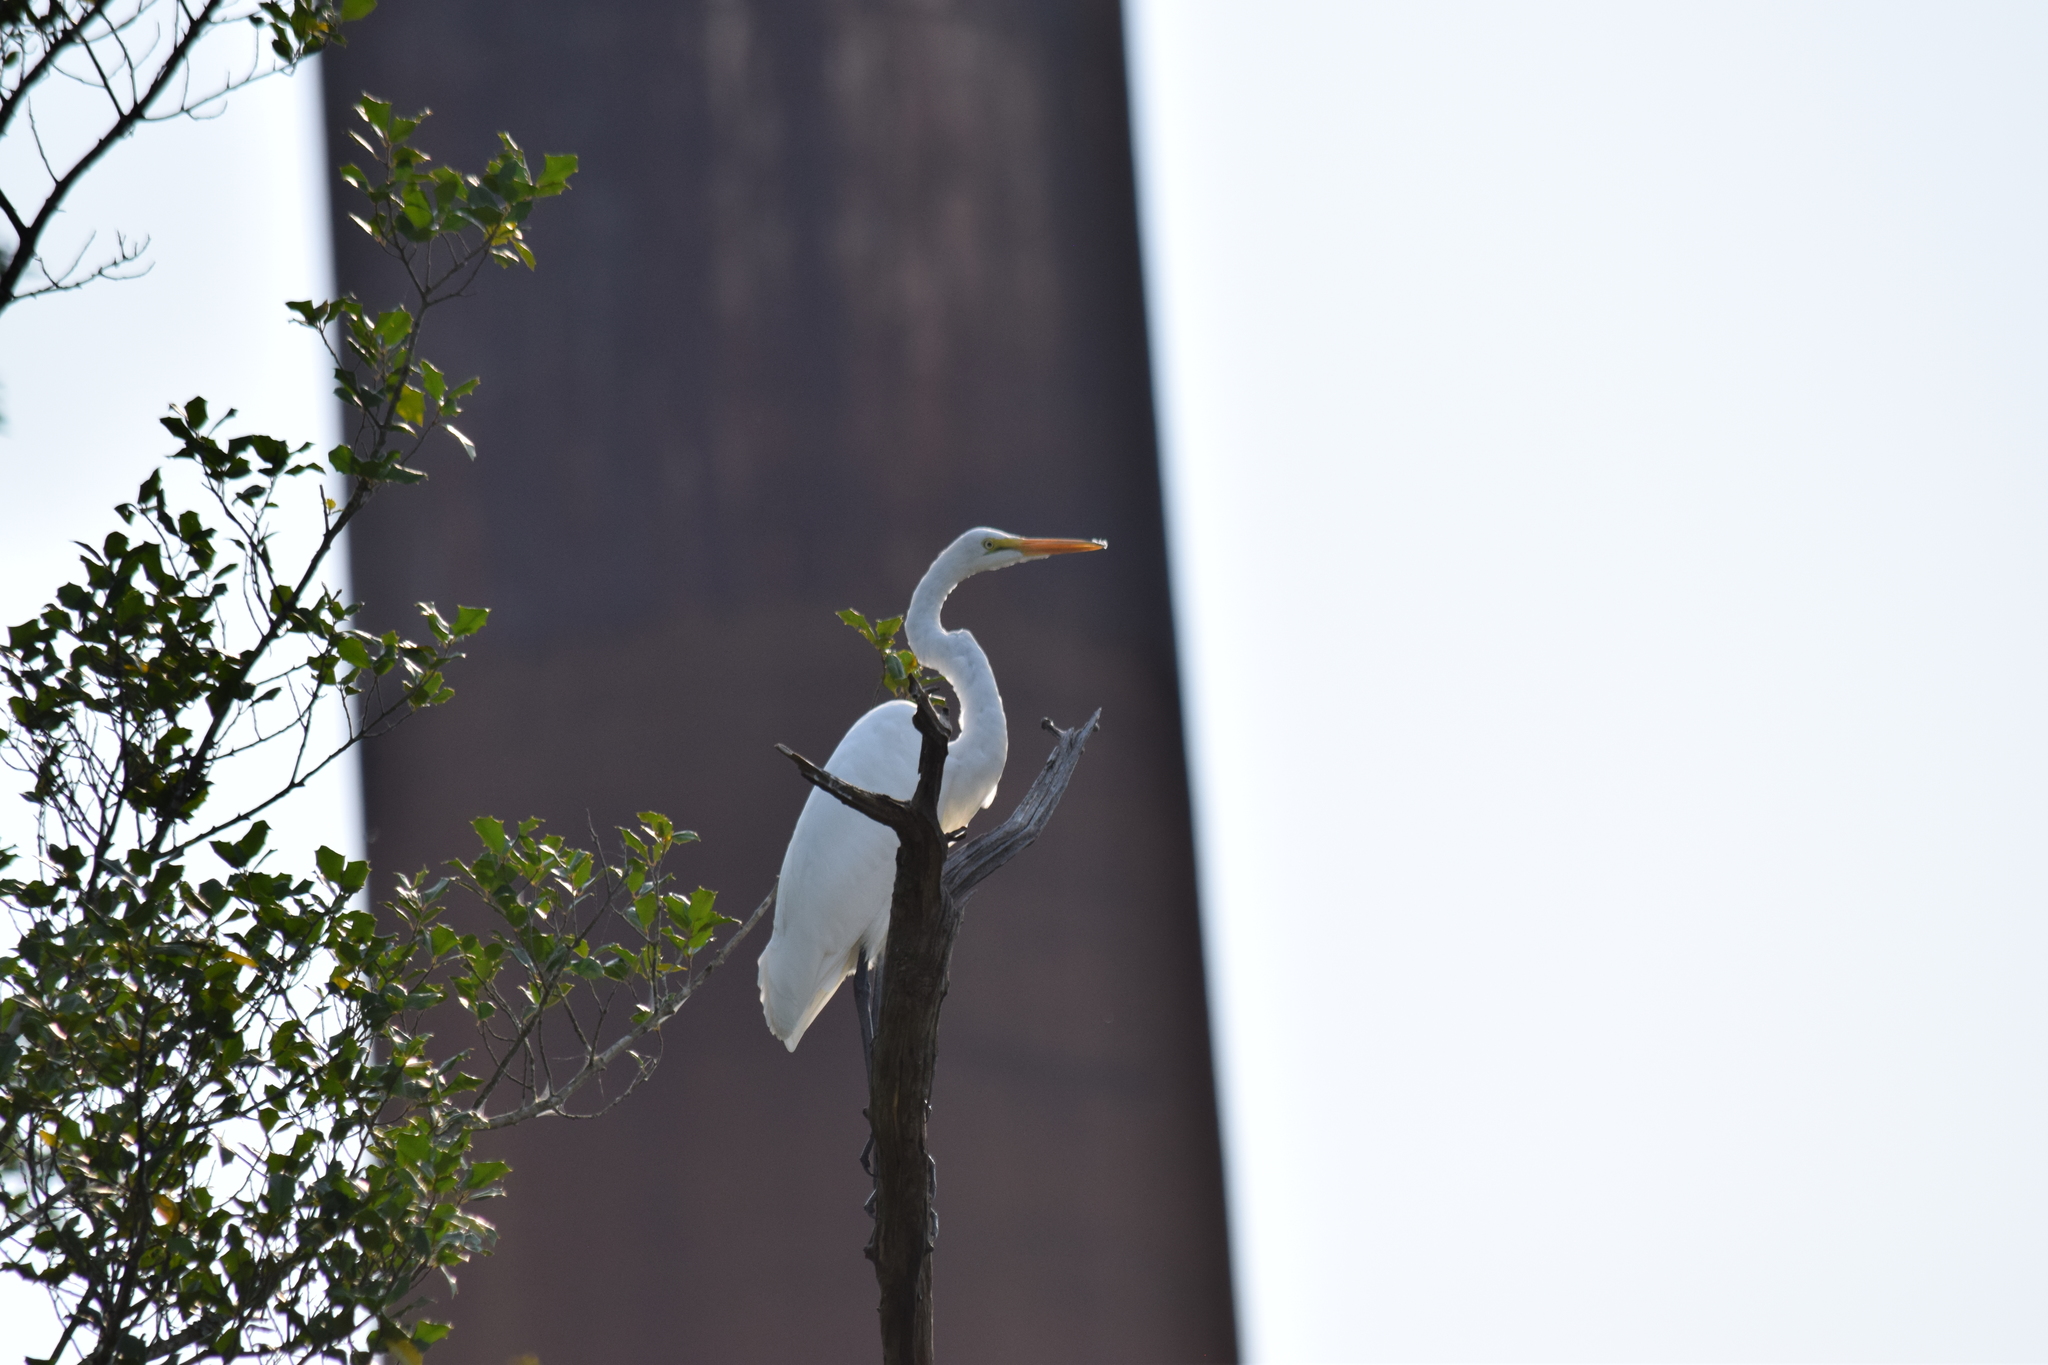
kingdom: Animalia
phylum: Chordata
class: Aves
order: Pelecaniformes
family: Ardeidae
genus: Ardea
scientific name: Ardea alba
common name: Great egret
